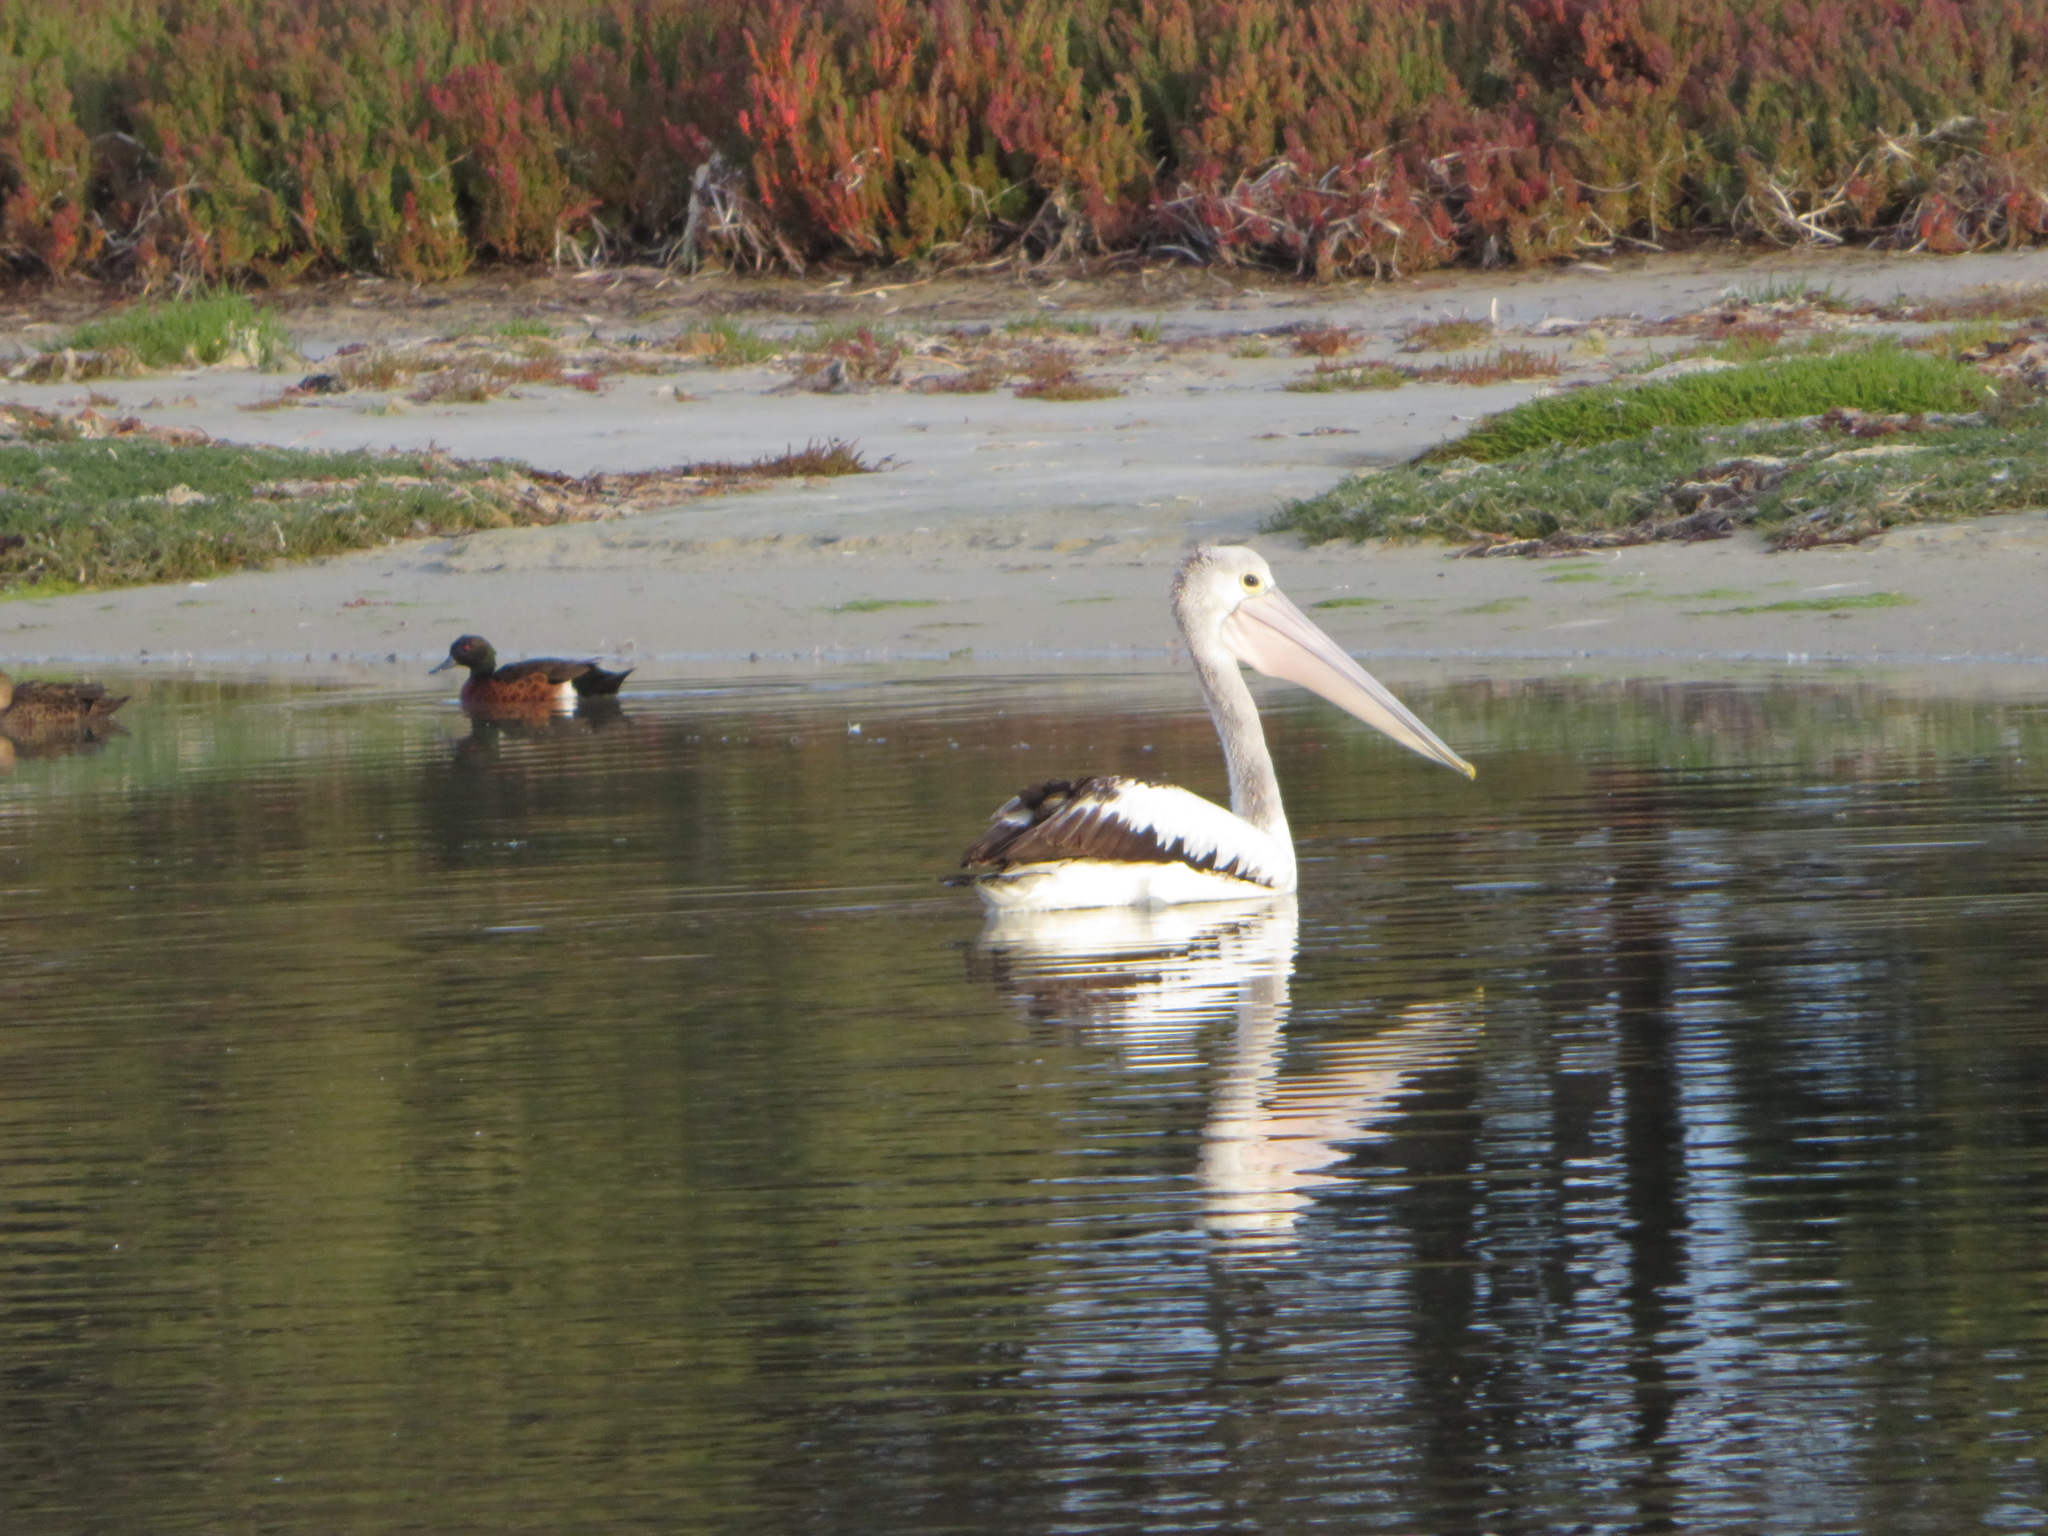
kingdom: Animalia
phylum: Chordata
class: Aves
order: Pelecaniformes
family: Pelecanidae
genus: Pelecanus
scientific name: Pelecanus conspicillatus
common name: Australian pelican
